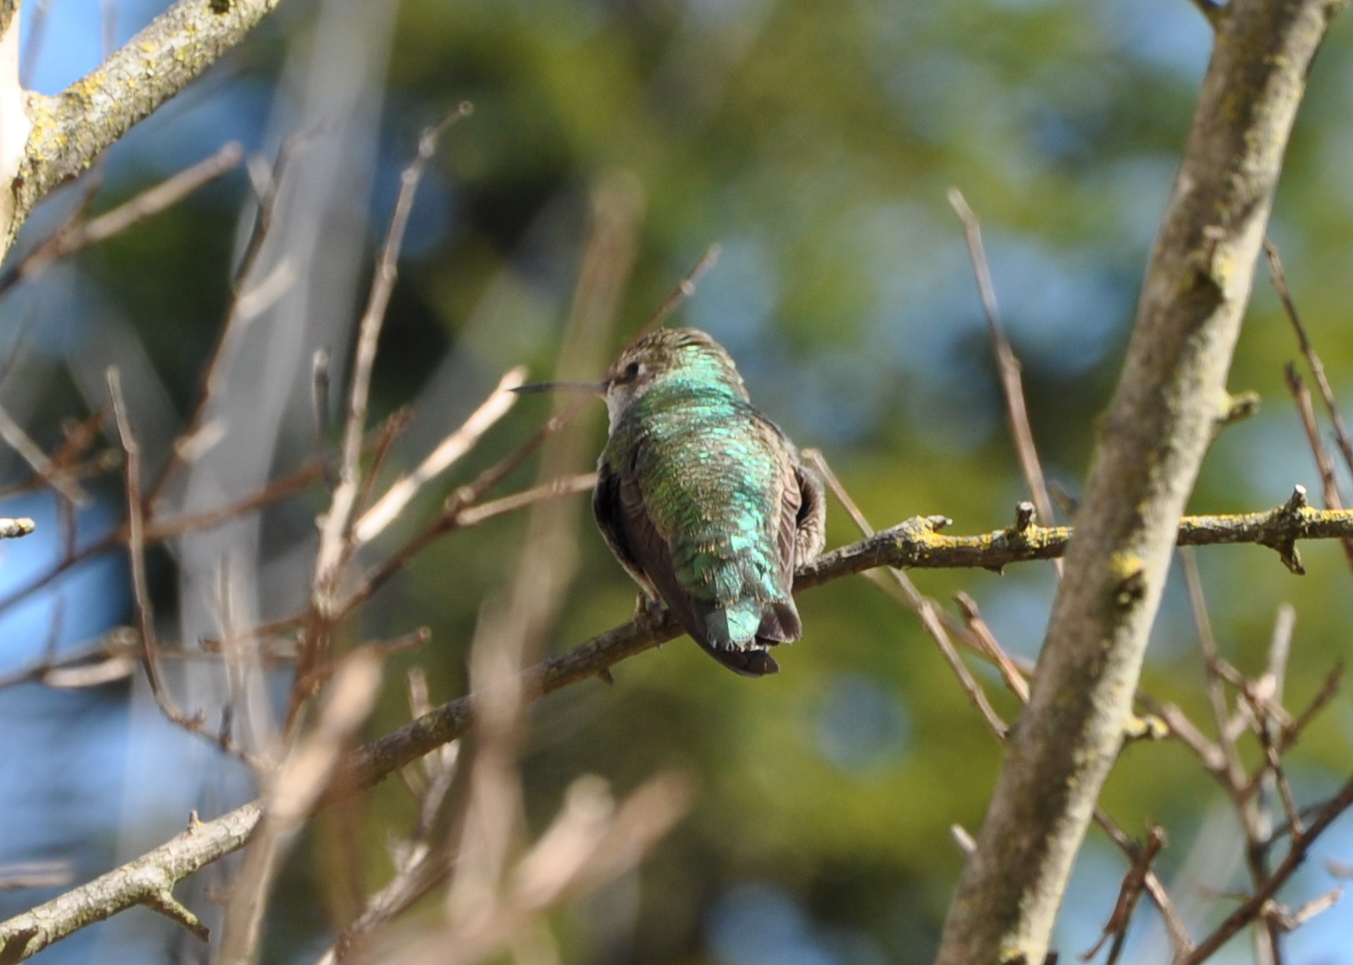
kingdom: Animalia
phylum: Chordata
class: Aves
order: Apodiformes
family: Trochilidae
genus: Calypte
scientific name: Calypte anna
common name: Anna's hummingbird
